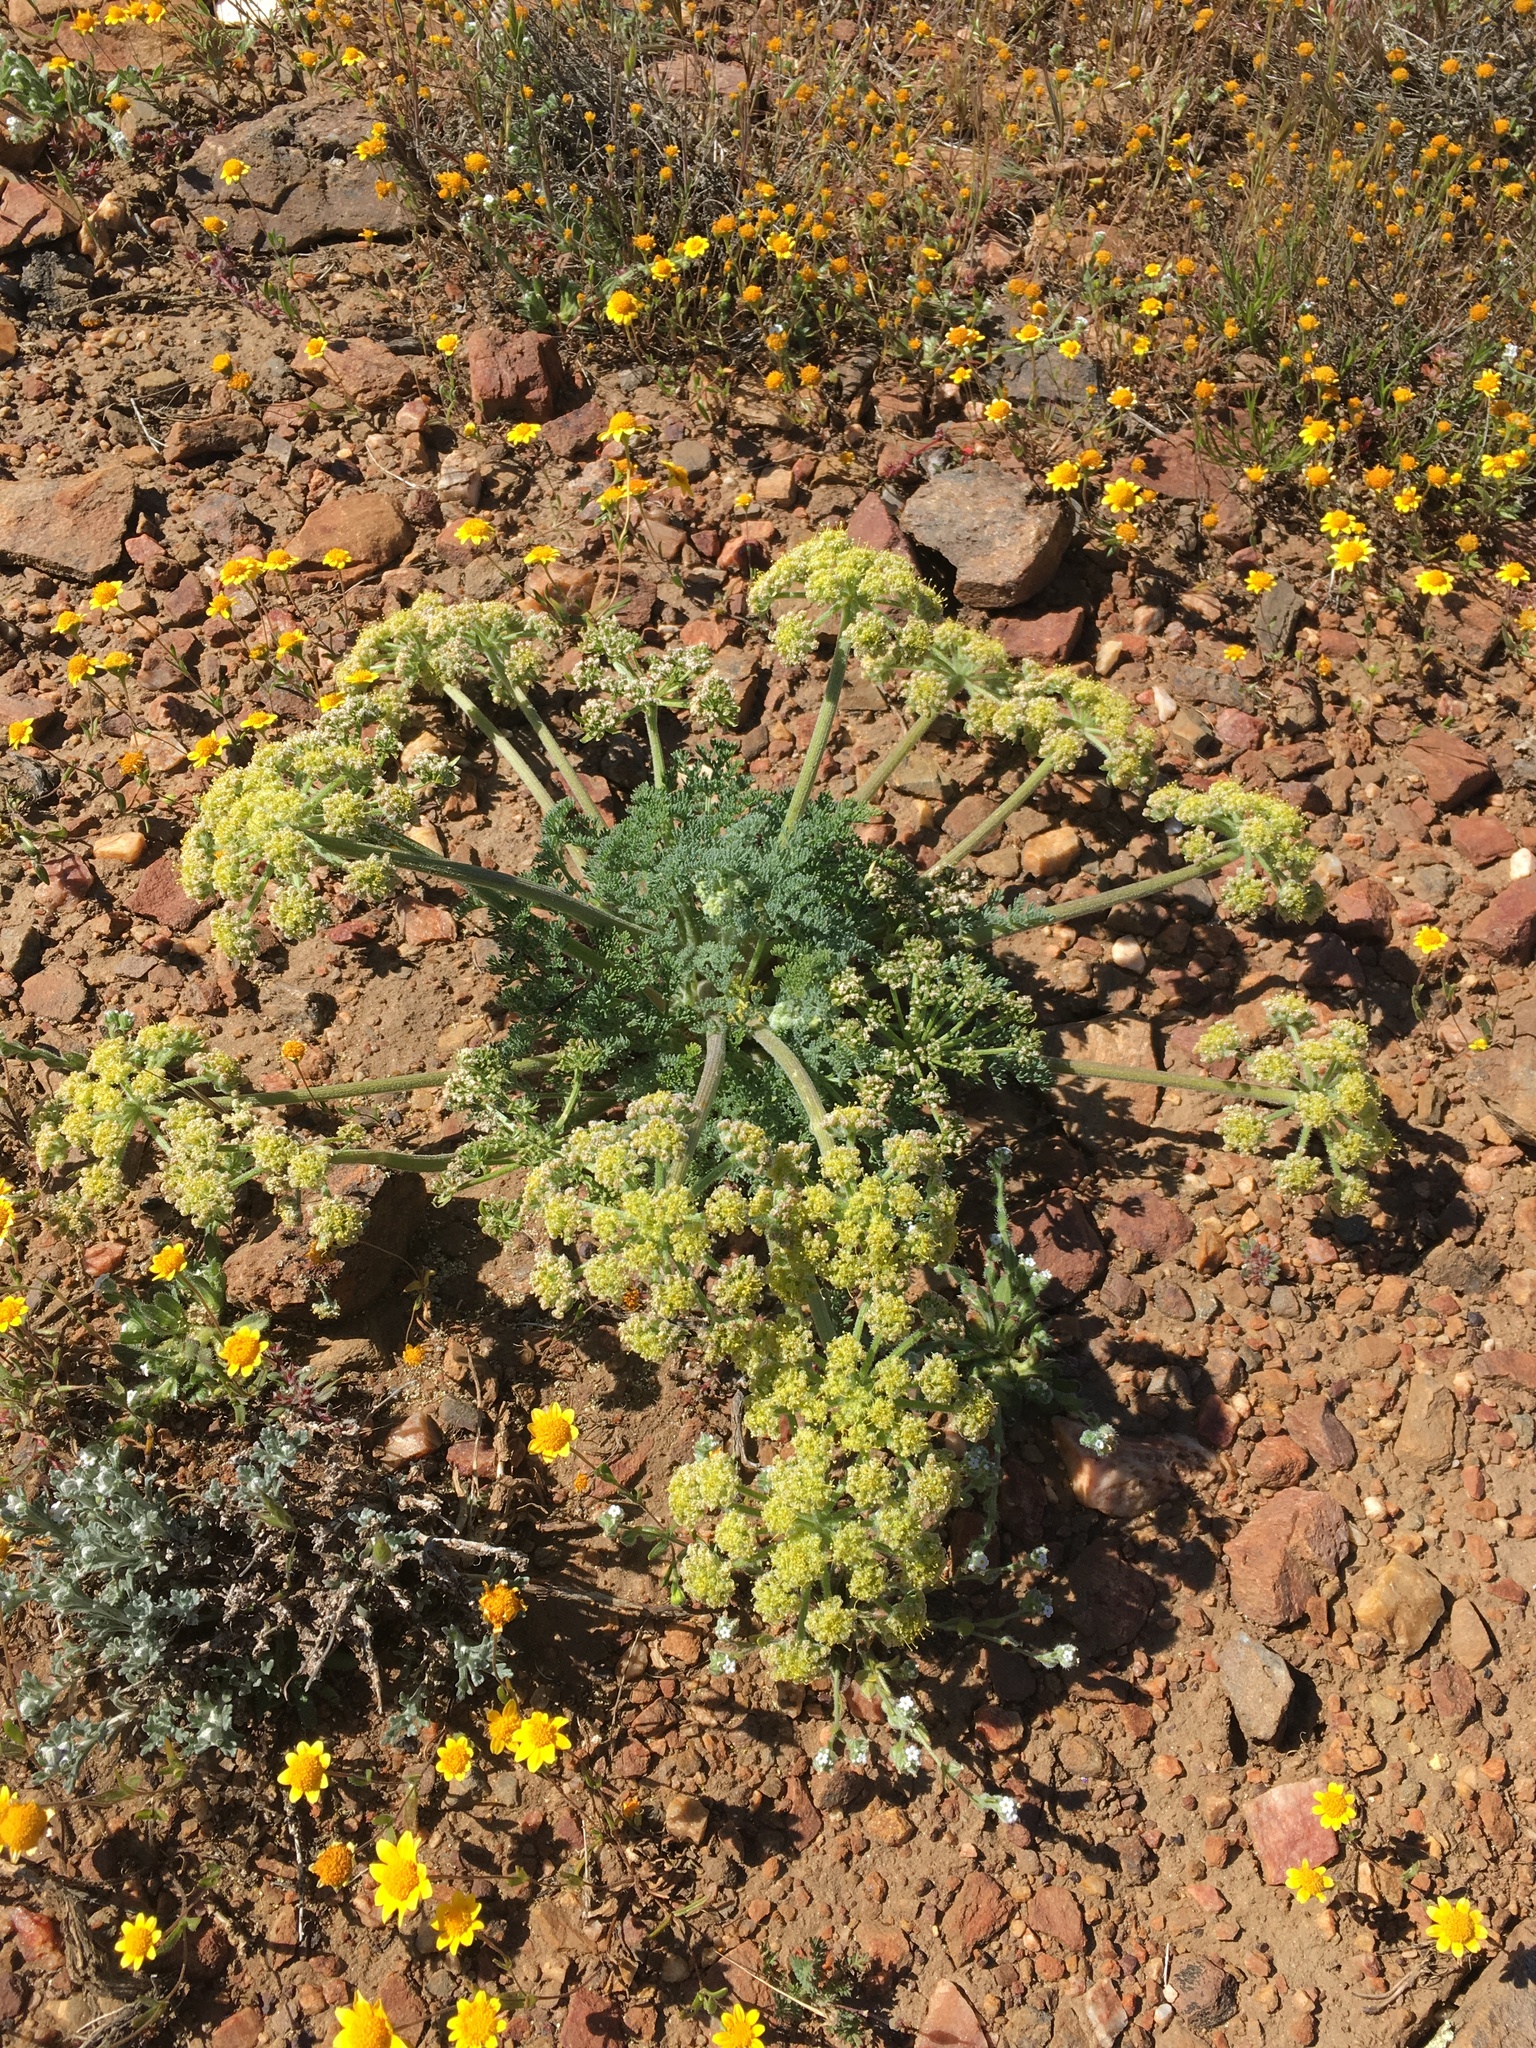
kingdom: Plantae
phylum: Tracheophyta
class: Magnoliopsida
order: Apiales
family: Apiaceae
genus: Lomatium
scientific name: Lomatium dasycarpum
